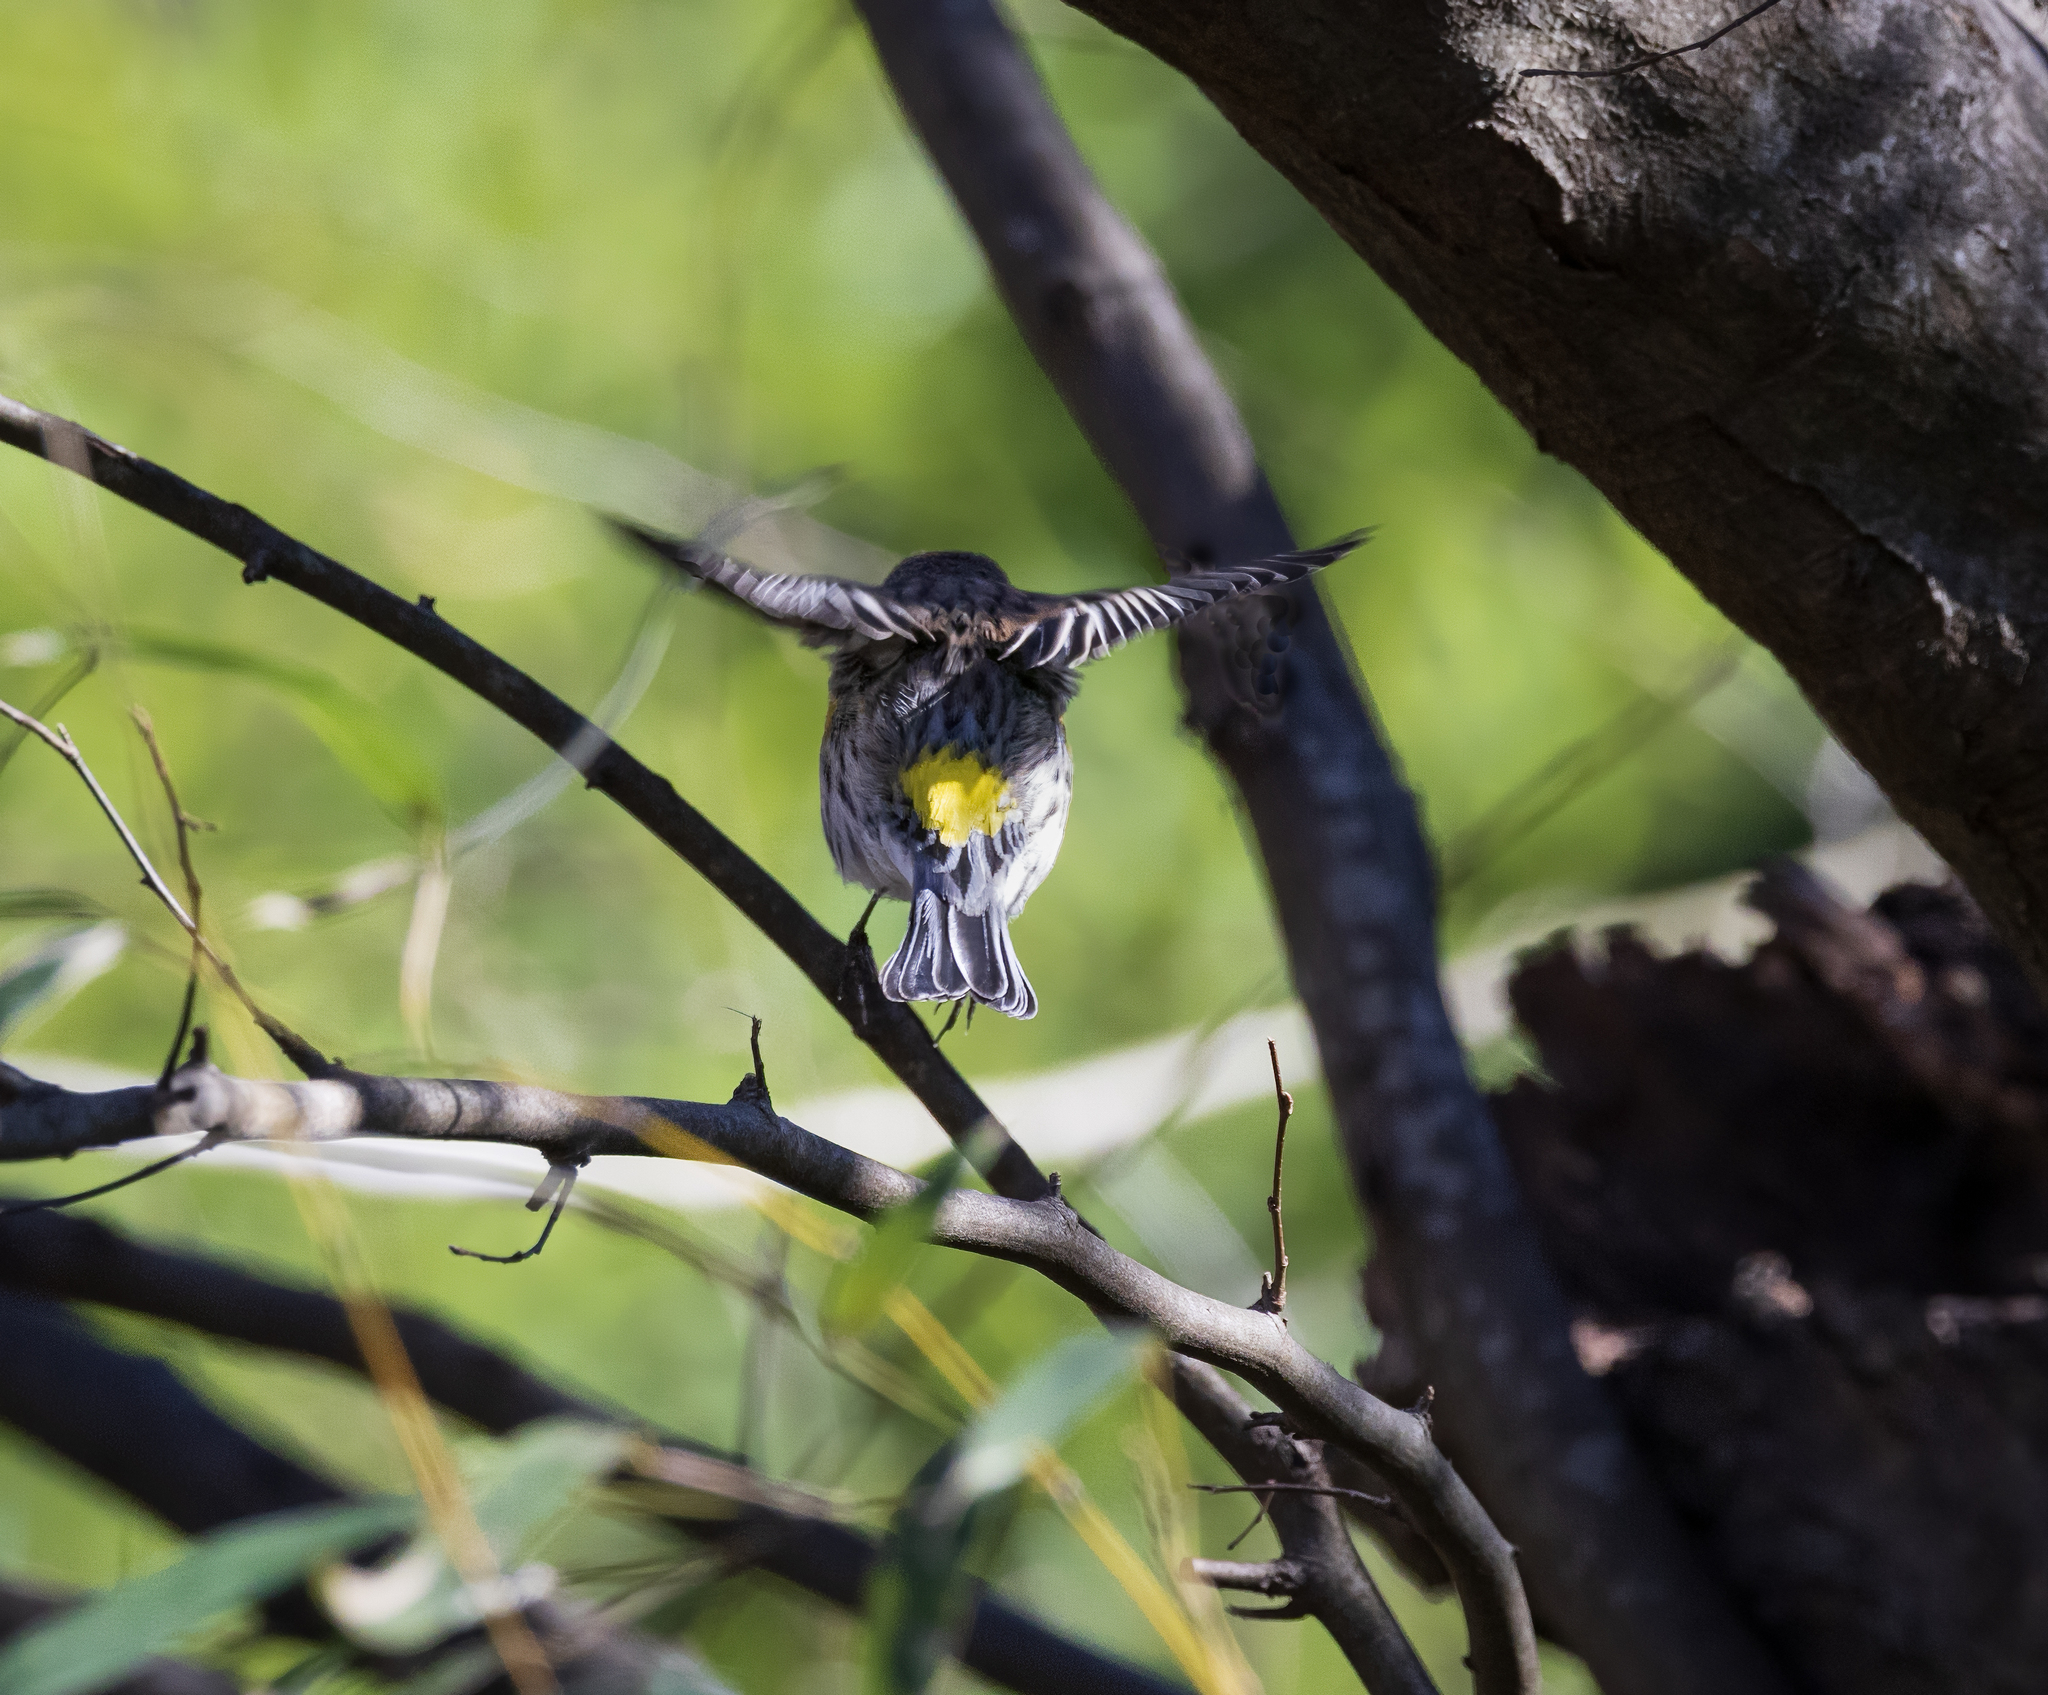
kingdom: Animalia
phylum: Chordata
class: Aves
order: Passeriformes
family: Parulidae
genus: Setophaga
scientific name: Setophaga coronata
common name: Myrtle warbler
